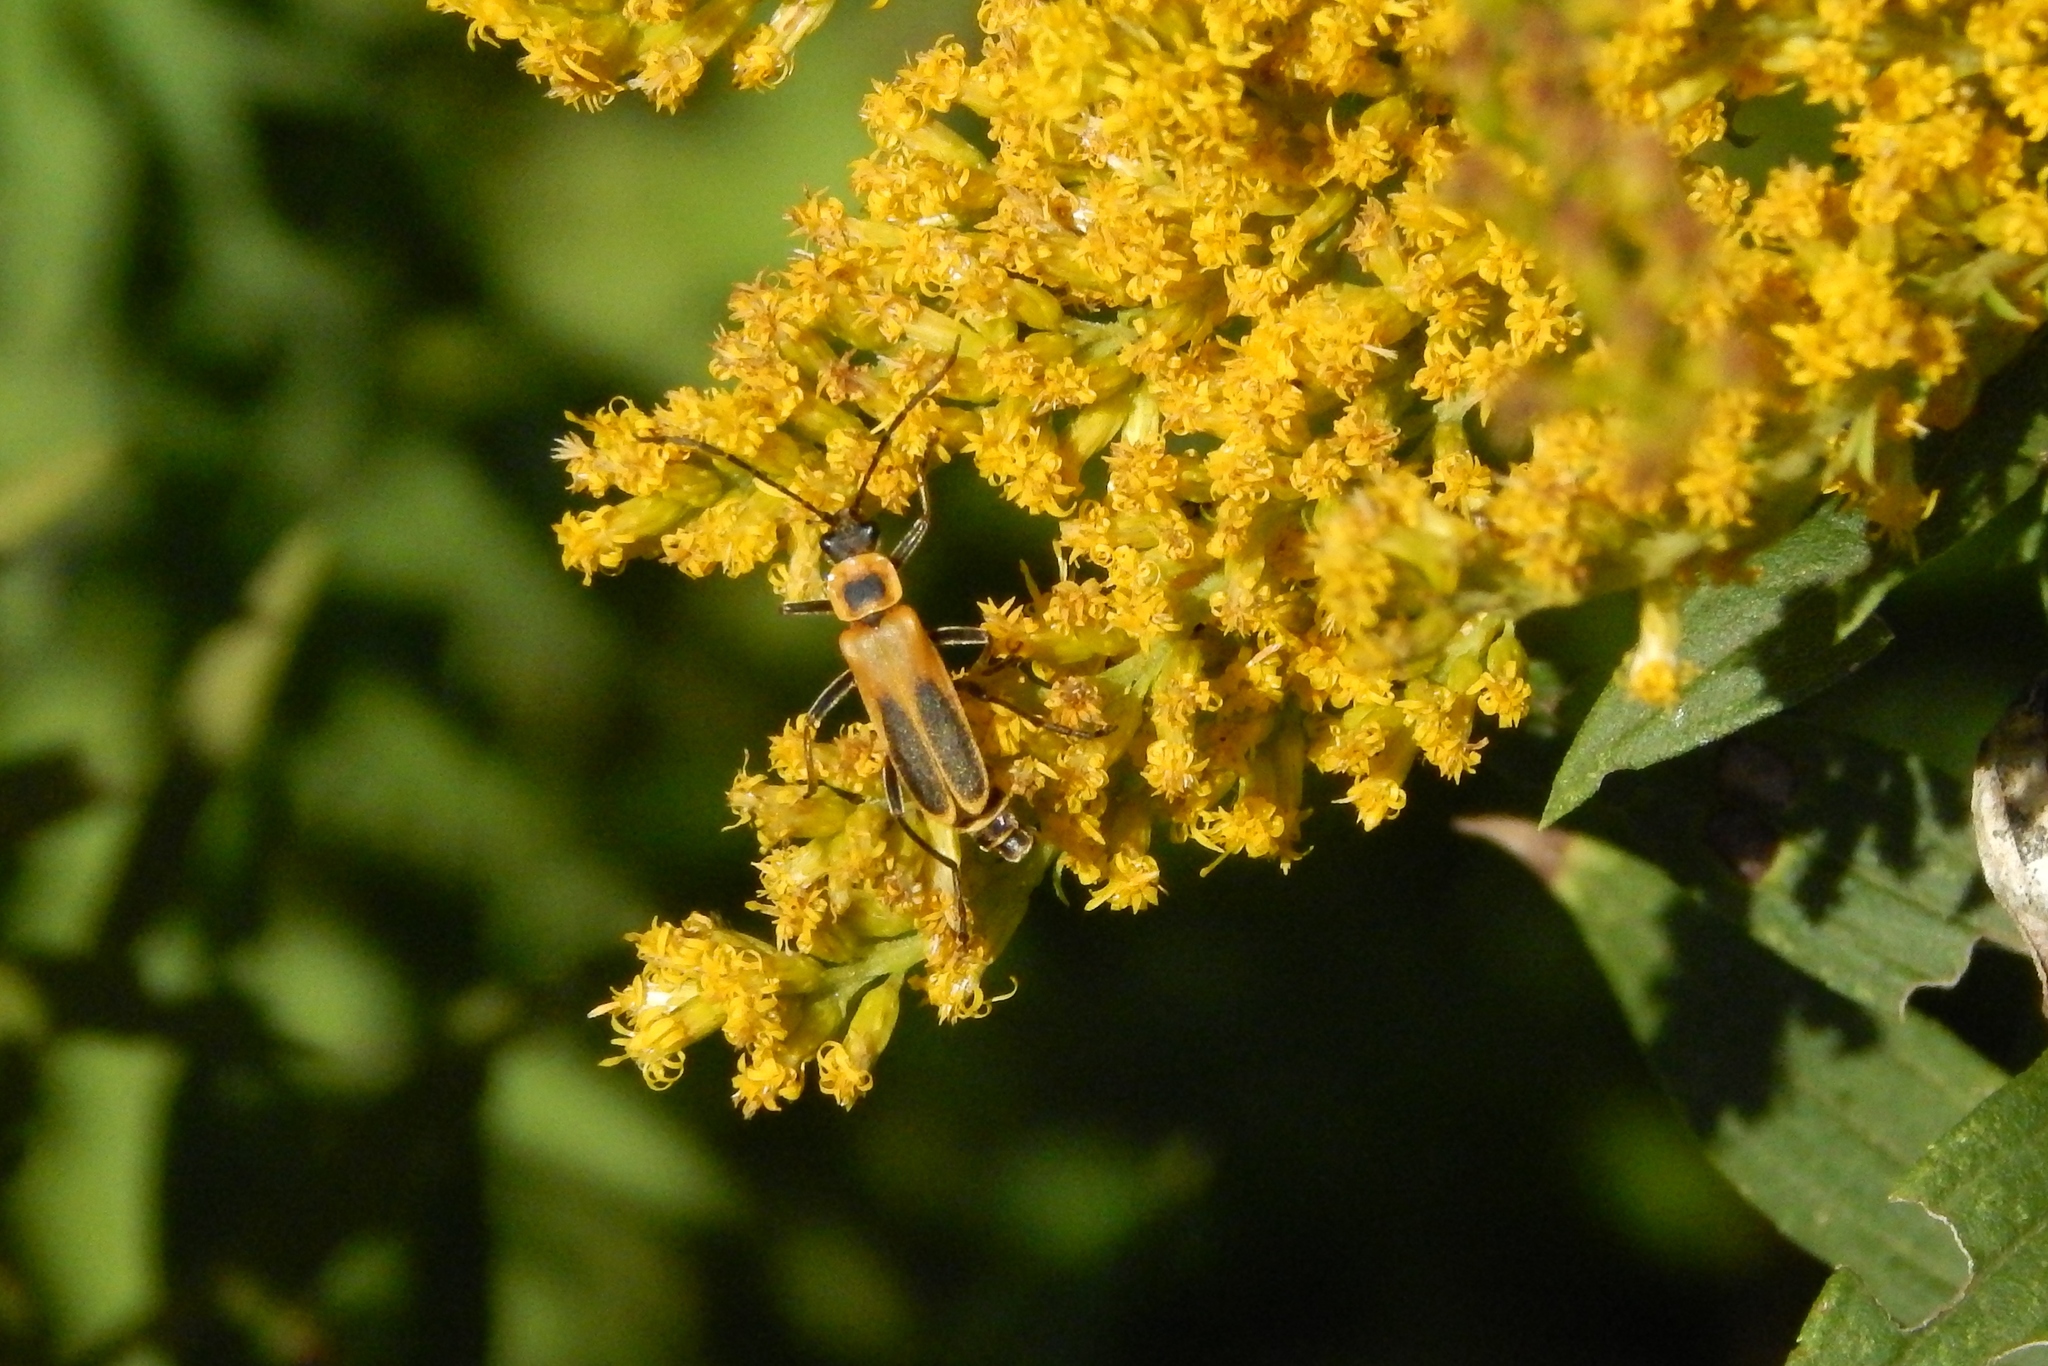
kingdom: Animalia
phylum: Arthropoda
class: Insecta
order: Coleoptera
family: Cantharidae
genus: Chauliognathus
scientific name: Chauliognathus pensylvanicus
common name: Goldenrod soldier beetle
